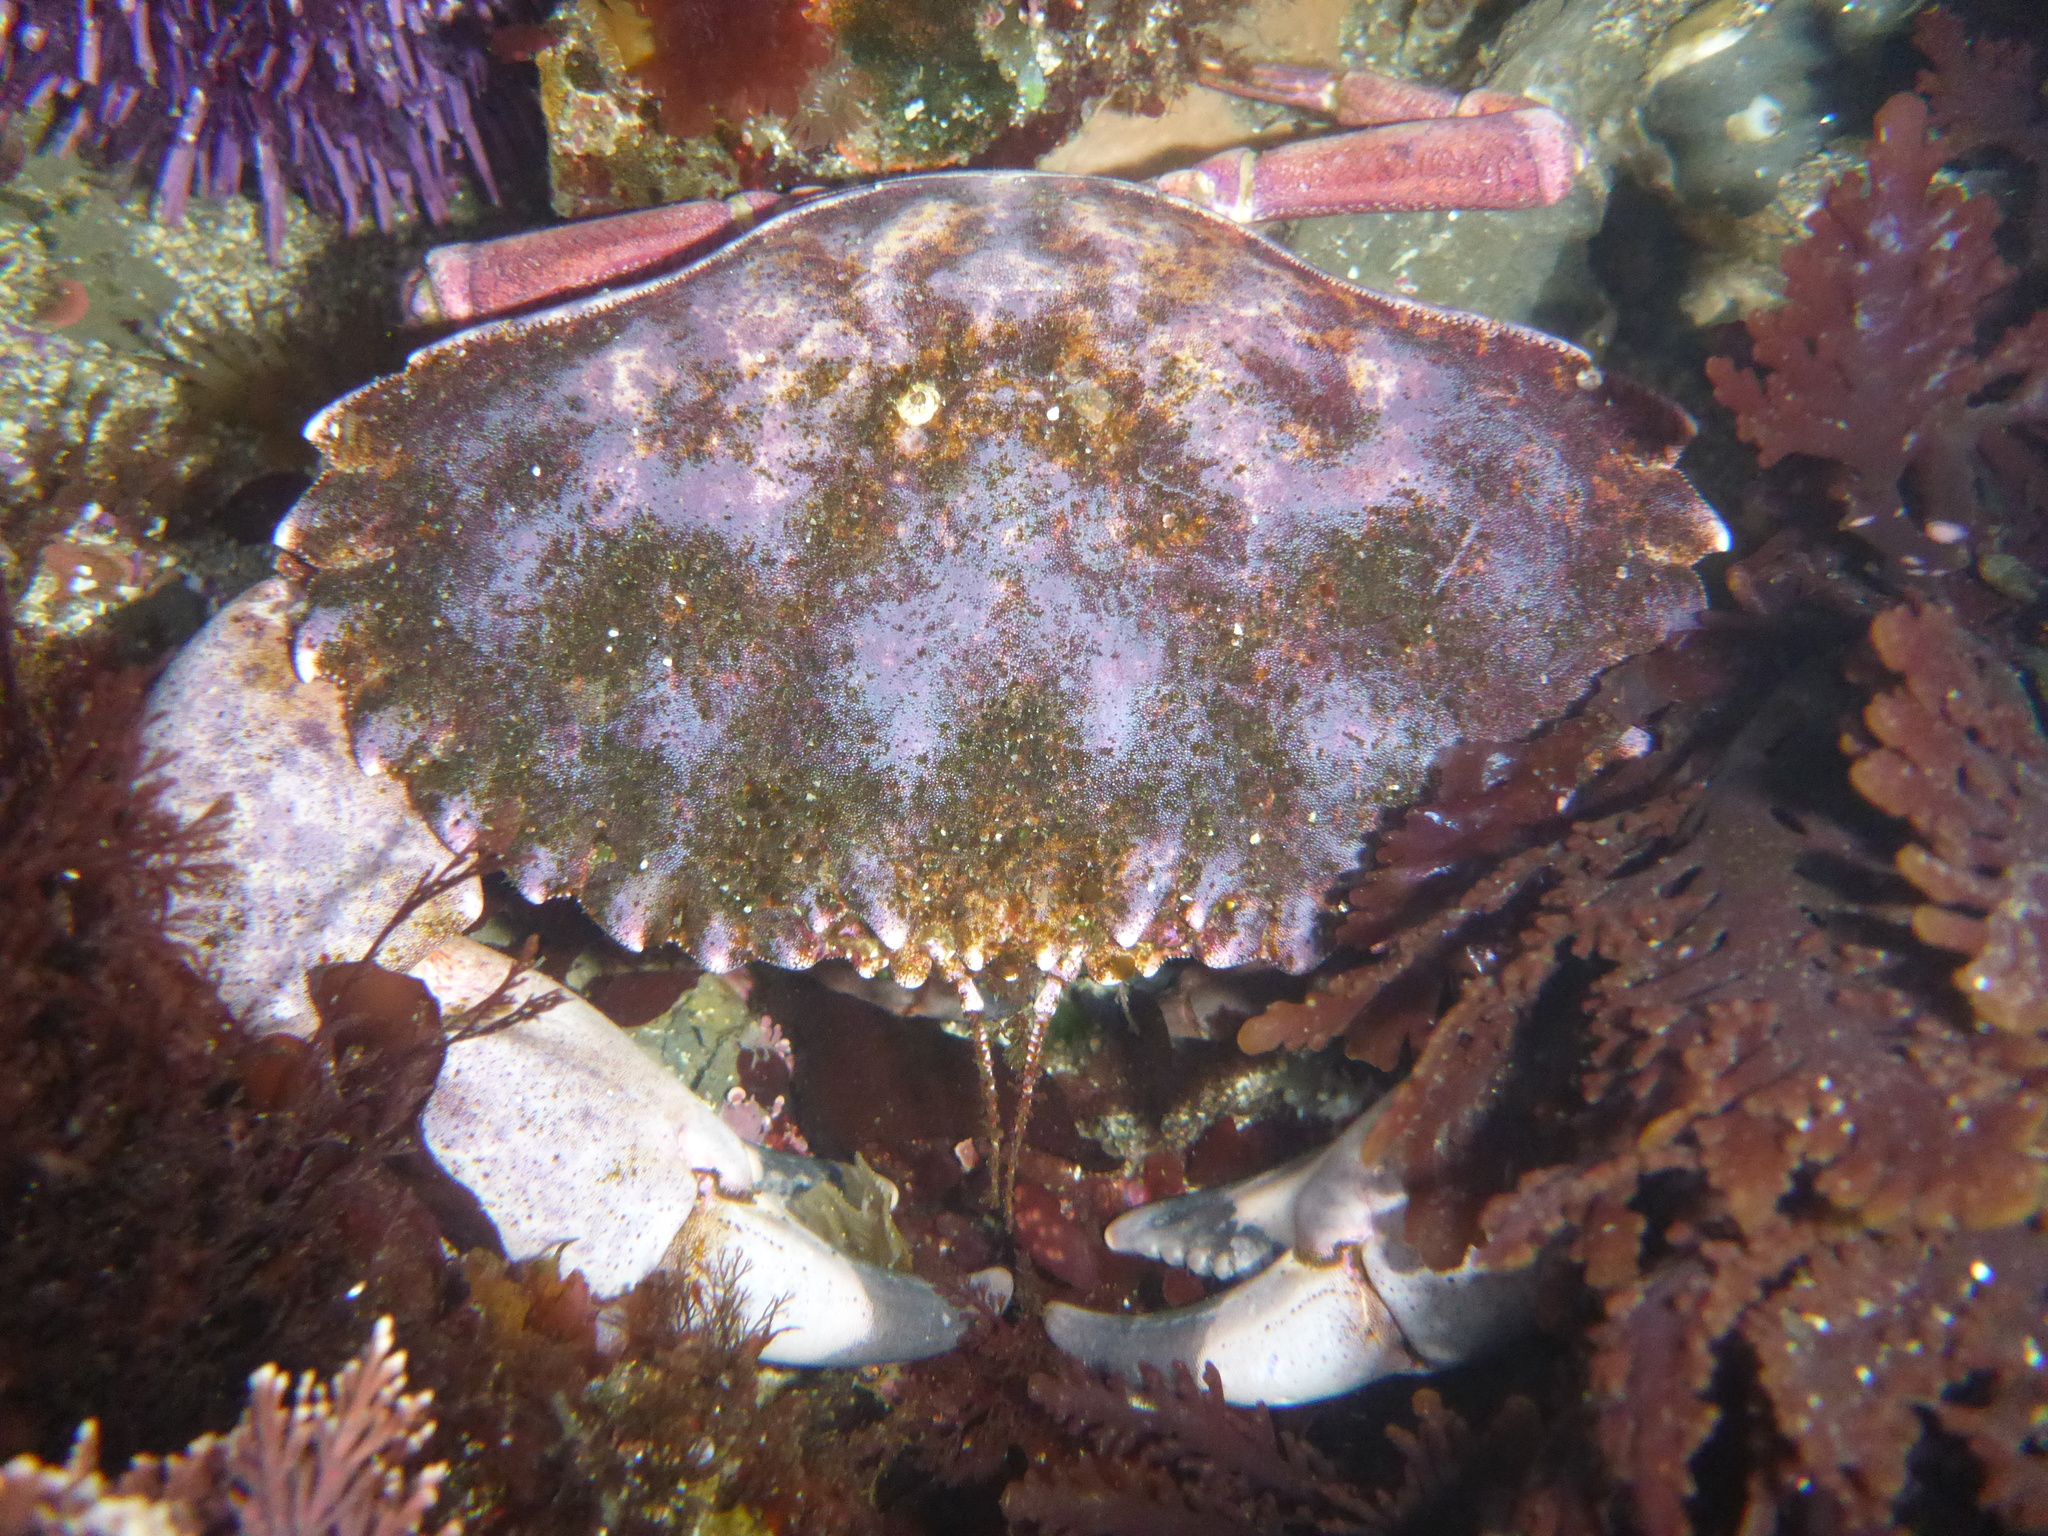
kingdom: Animalia
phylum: Arthropoda
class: Malacostraca
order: Decapoda
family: Cancridae
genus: Romaleon
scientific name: Romaleon antennarium
